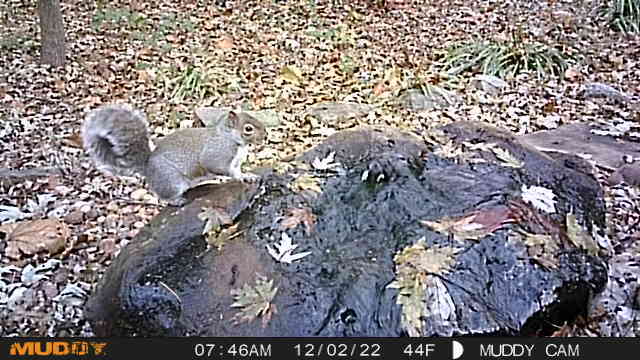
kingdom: Animalia
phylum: Chordata
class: Mammalia
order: Rodentia
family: Sciuridae
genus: Sciurus
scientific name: Sciurus carolinensis
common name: Eastern gray squirrel
